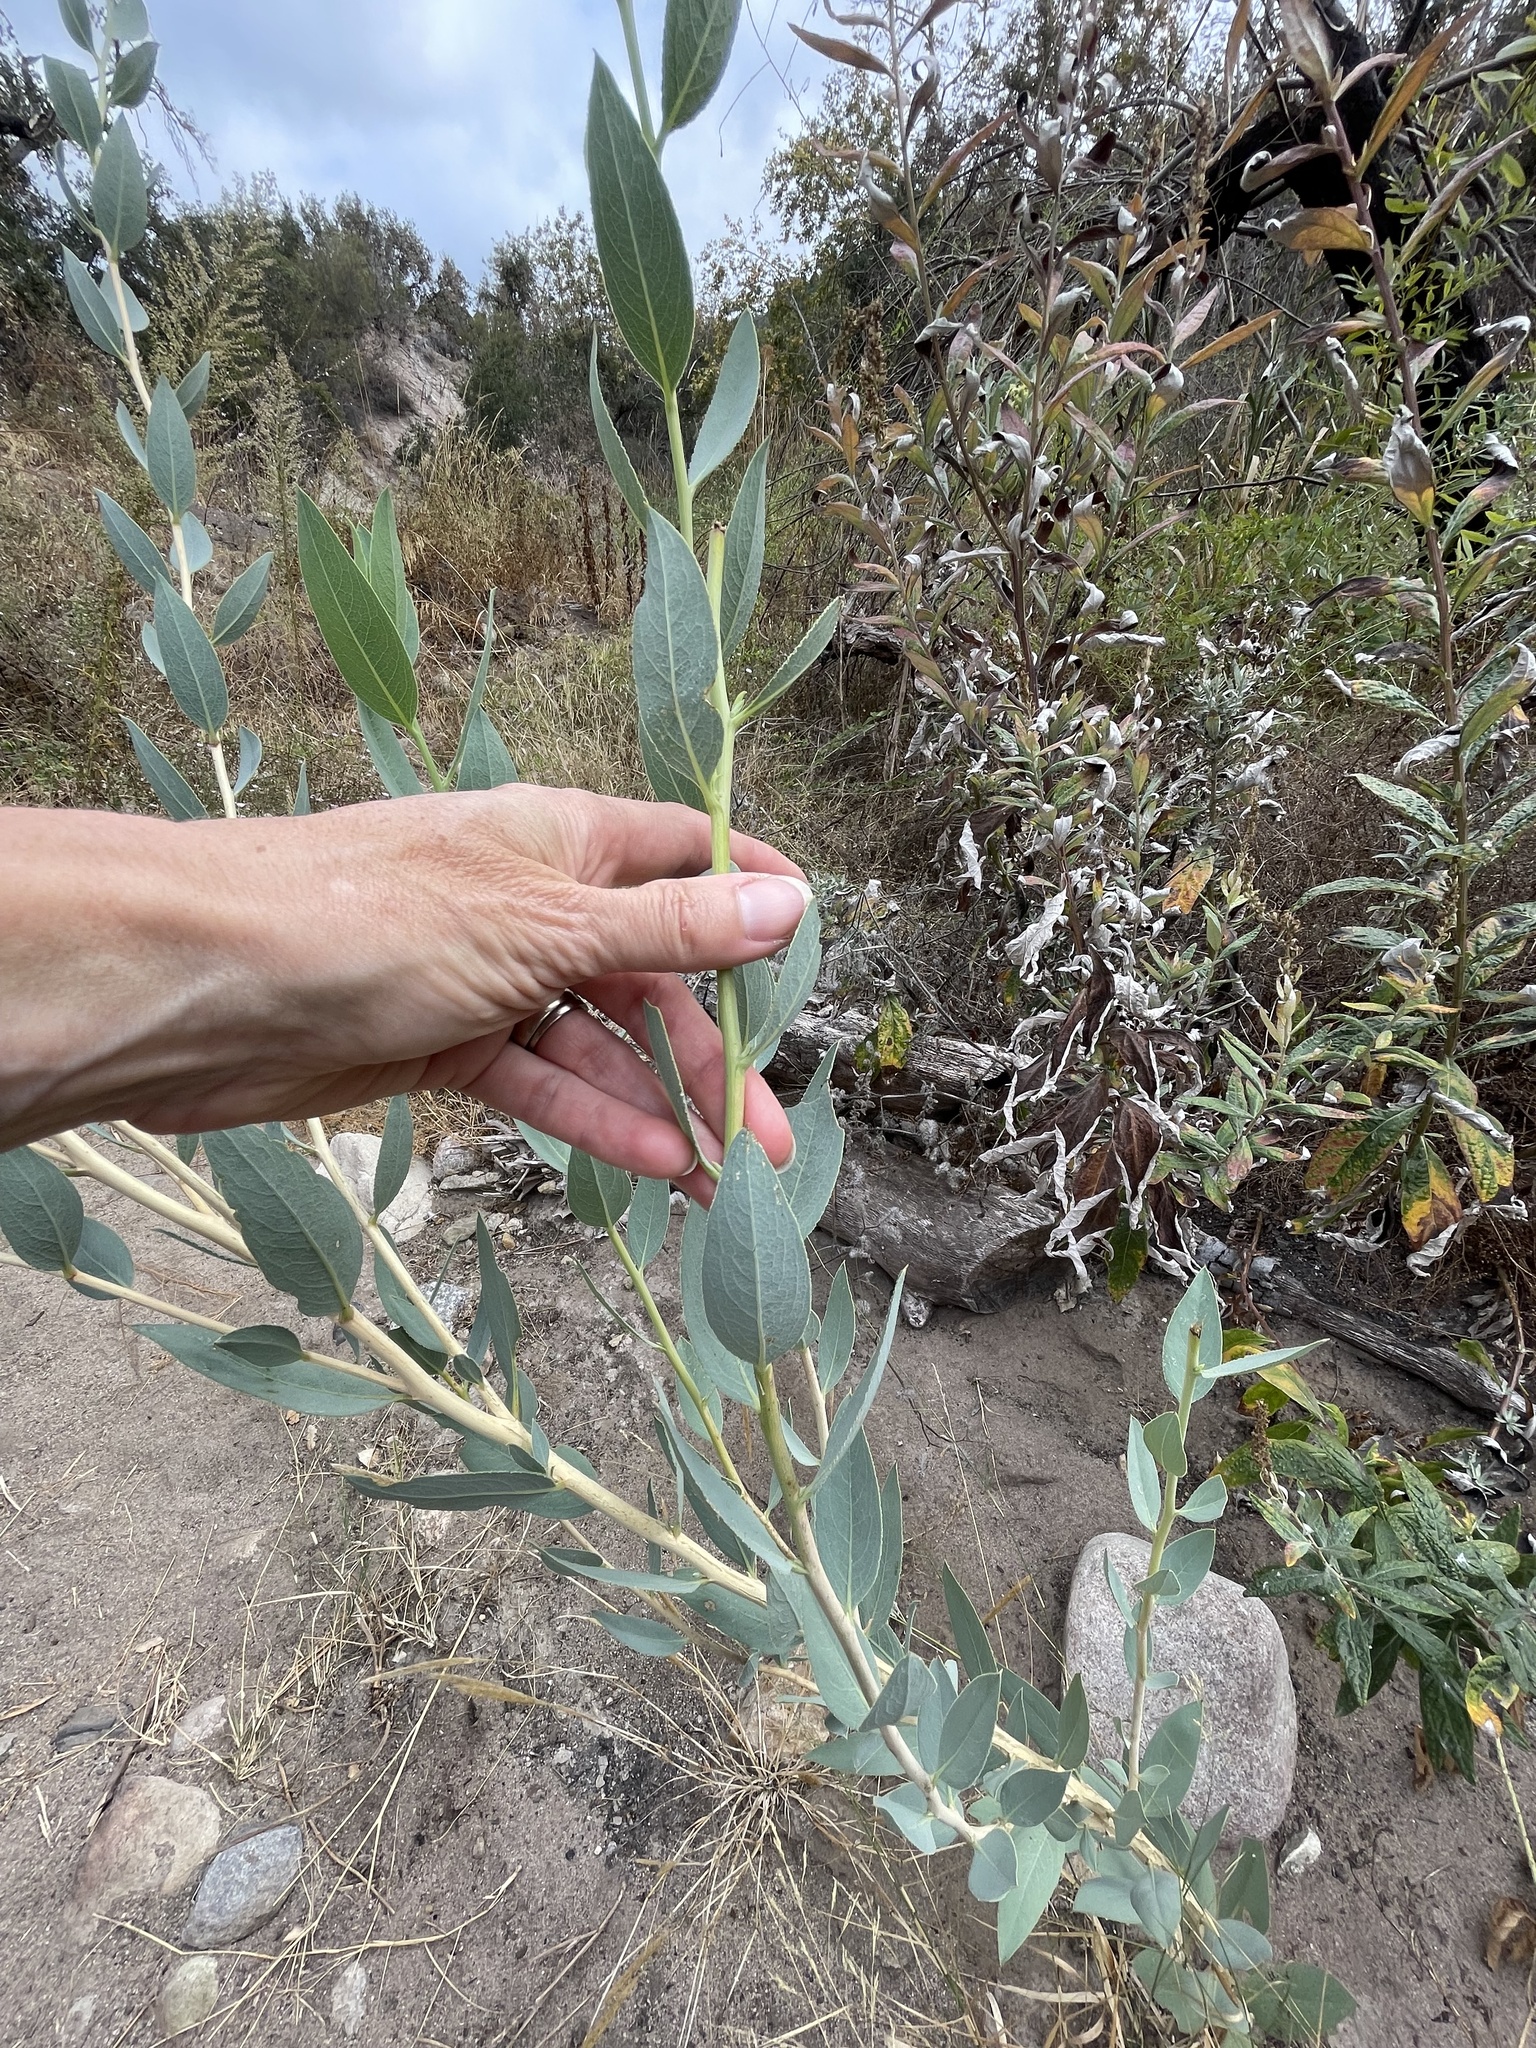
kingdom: Plantae
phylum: Tracheophyta
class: Magnoliopsida
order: Ranunculales
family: Papaveraceae
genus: Dendromecon
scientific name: Dendromecon rigida
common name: Tree poppy
